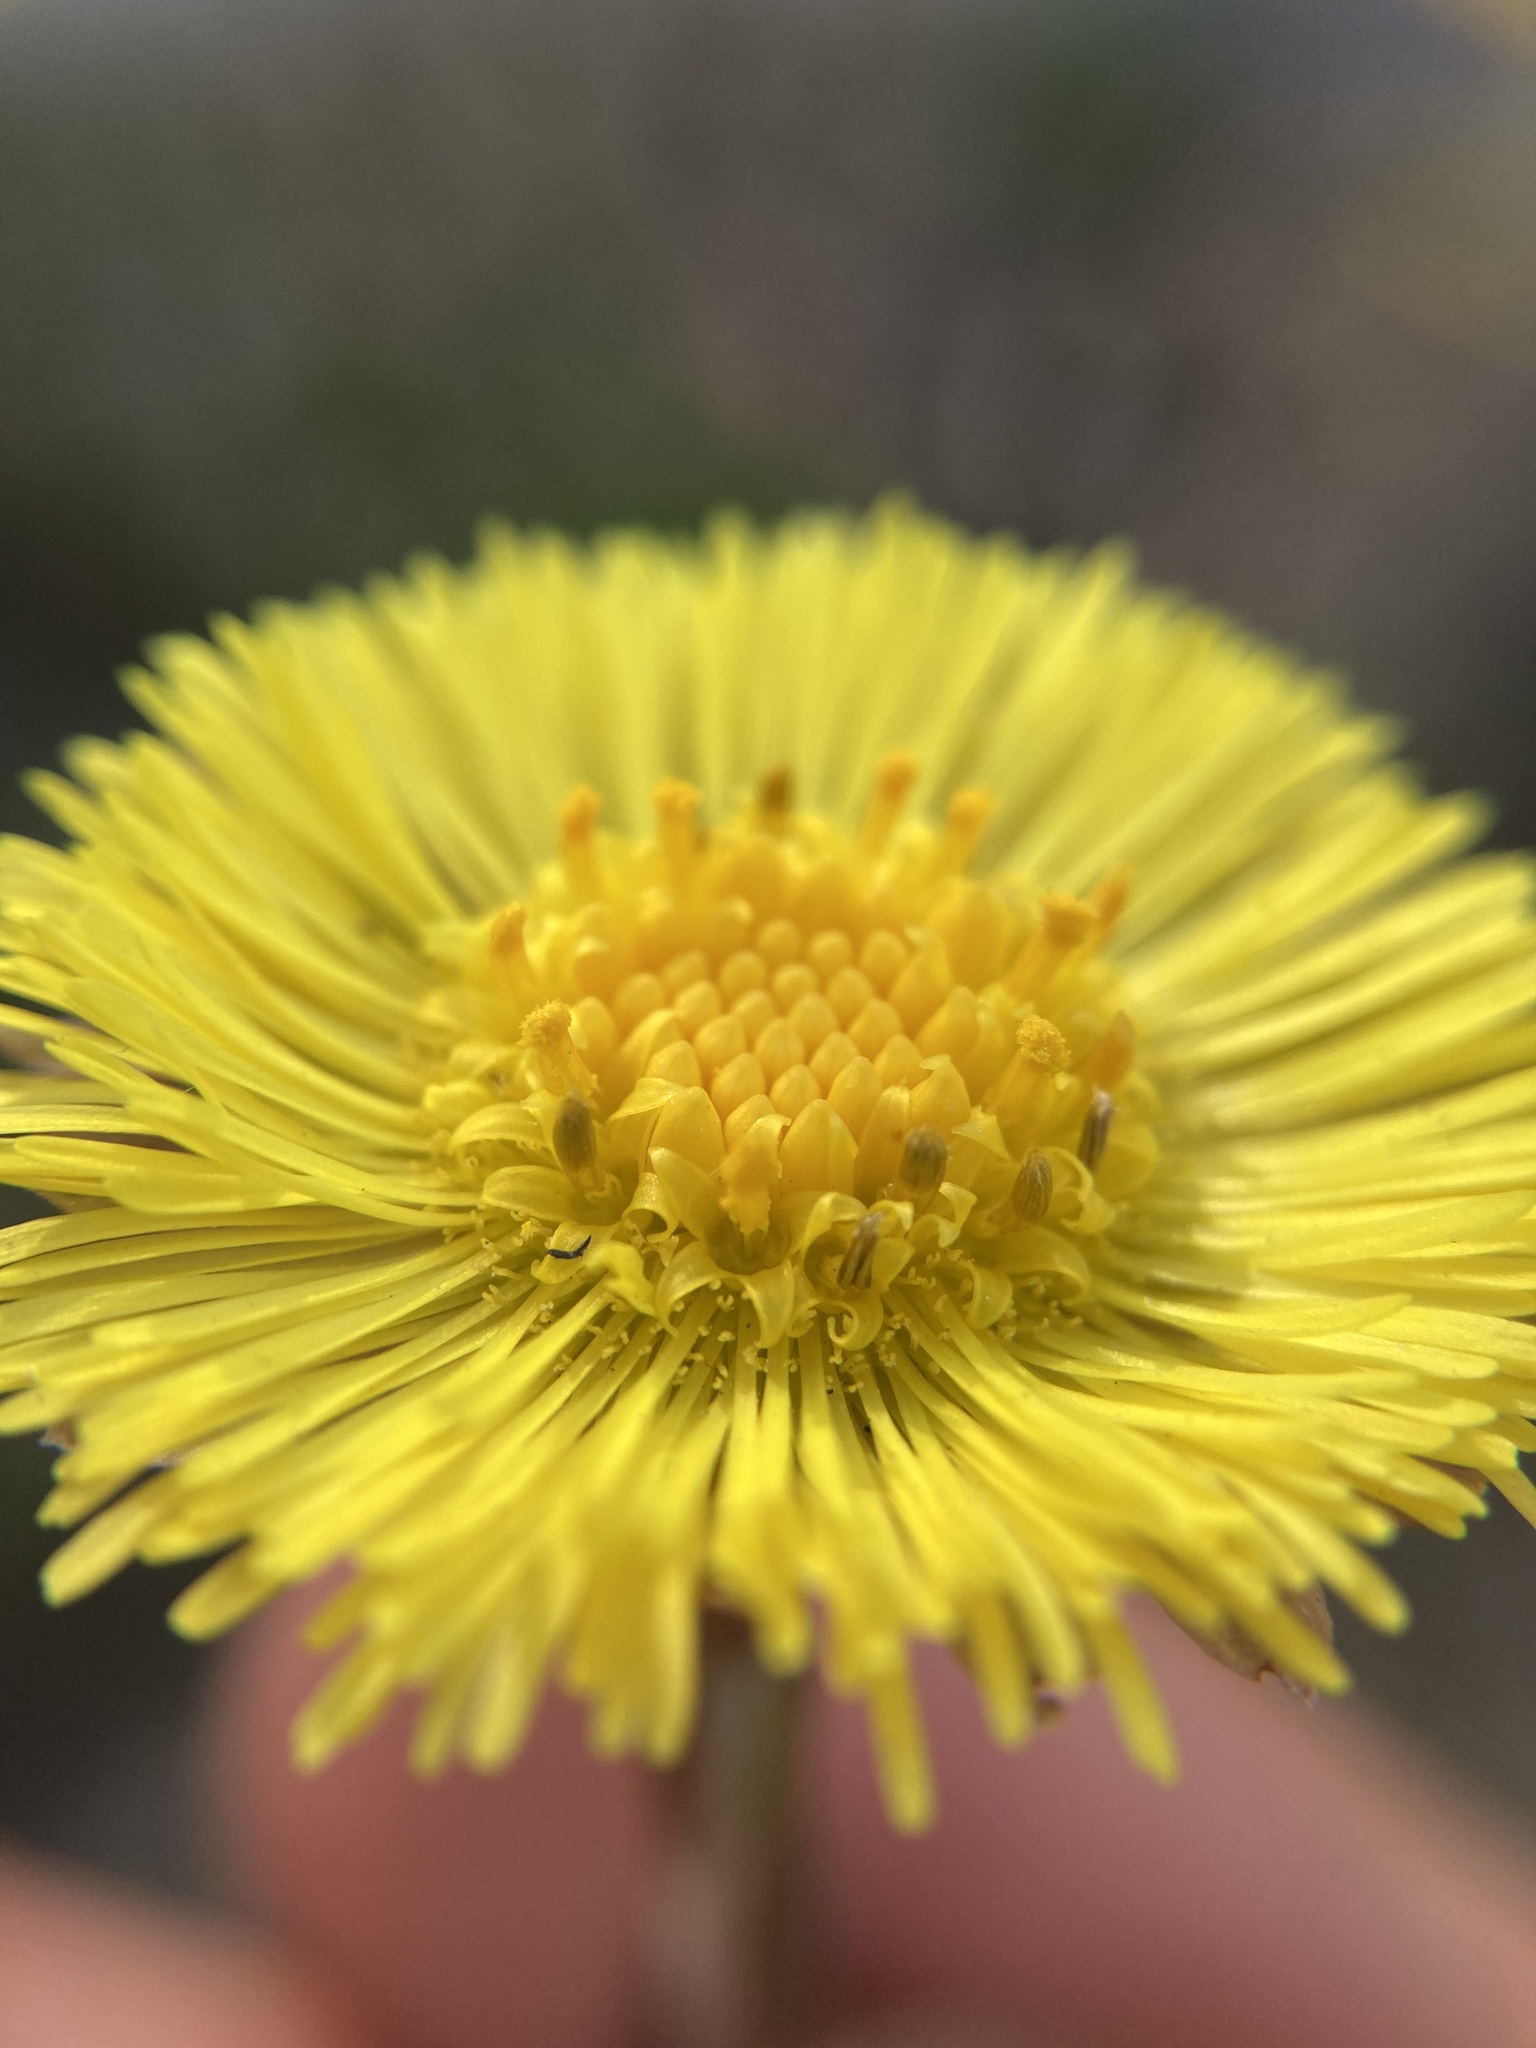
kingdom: Plantae
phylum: Tracheophyta
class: Magnoliopsida
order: Asterales
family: Asteraceae
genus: Tussilago
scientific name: Tussilago farfara
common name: Coltsfoot
